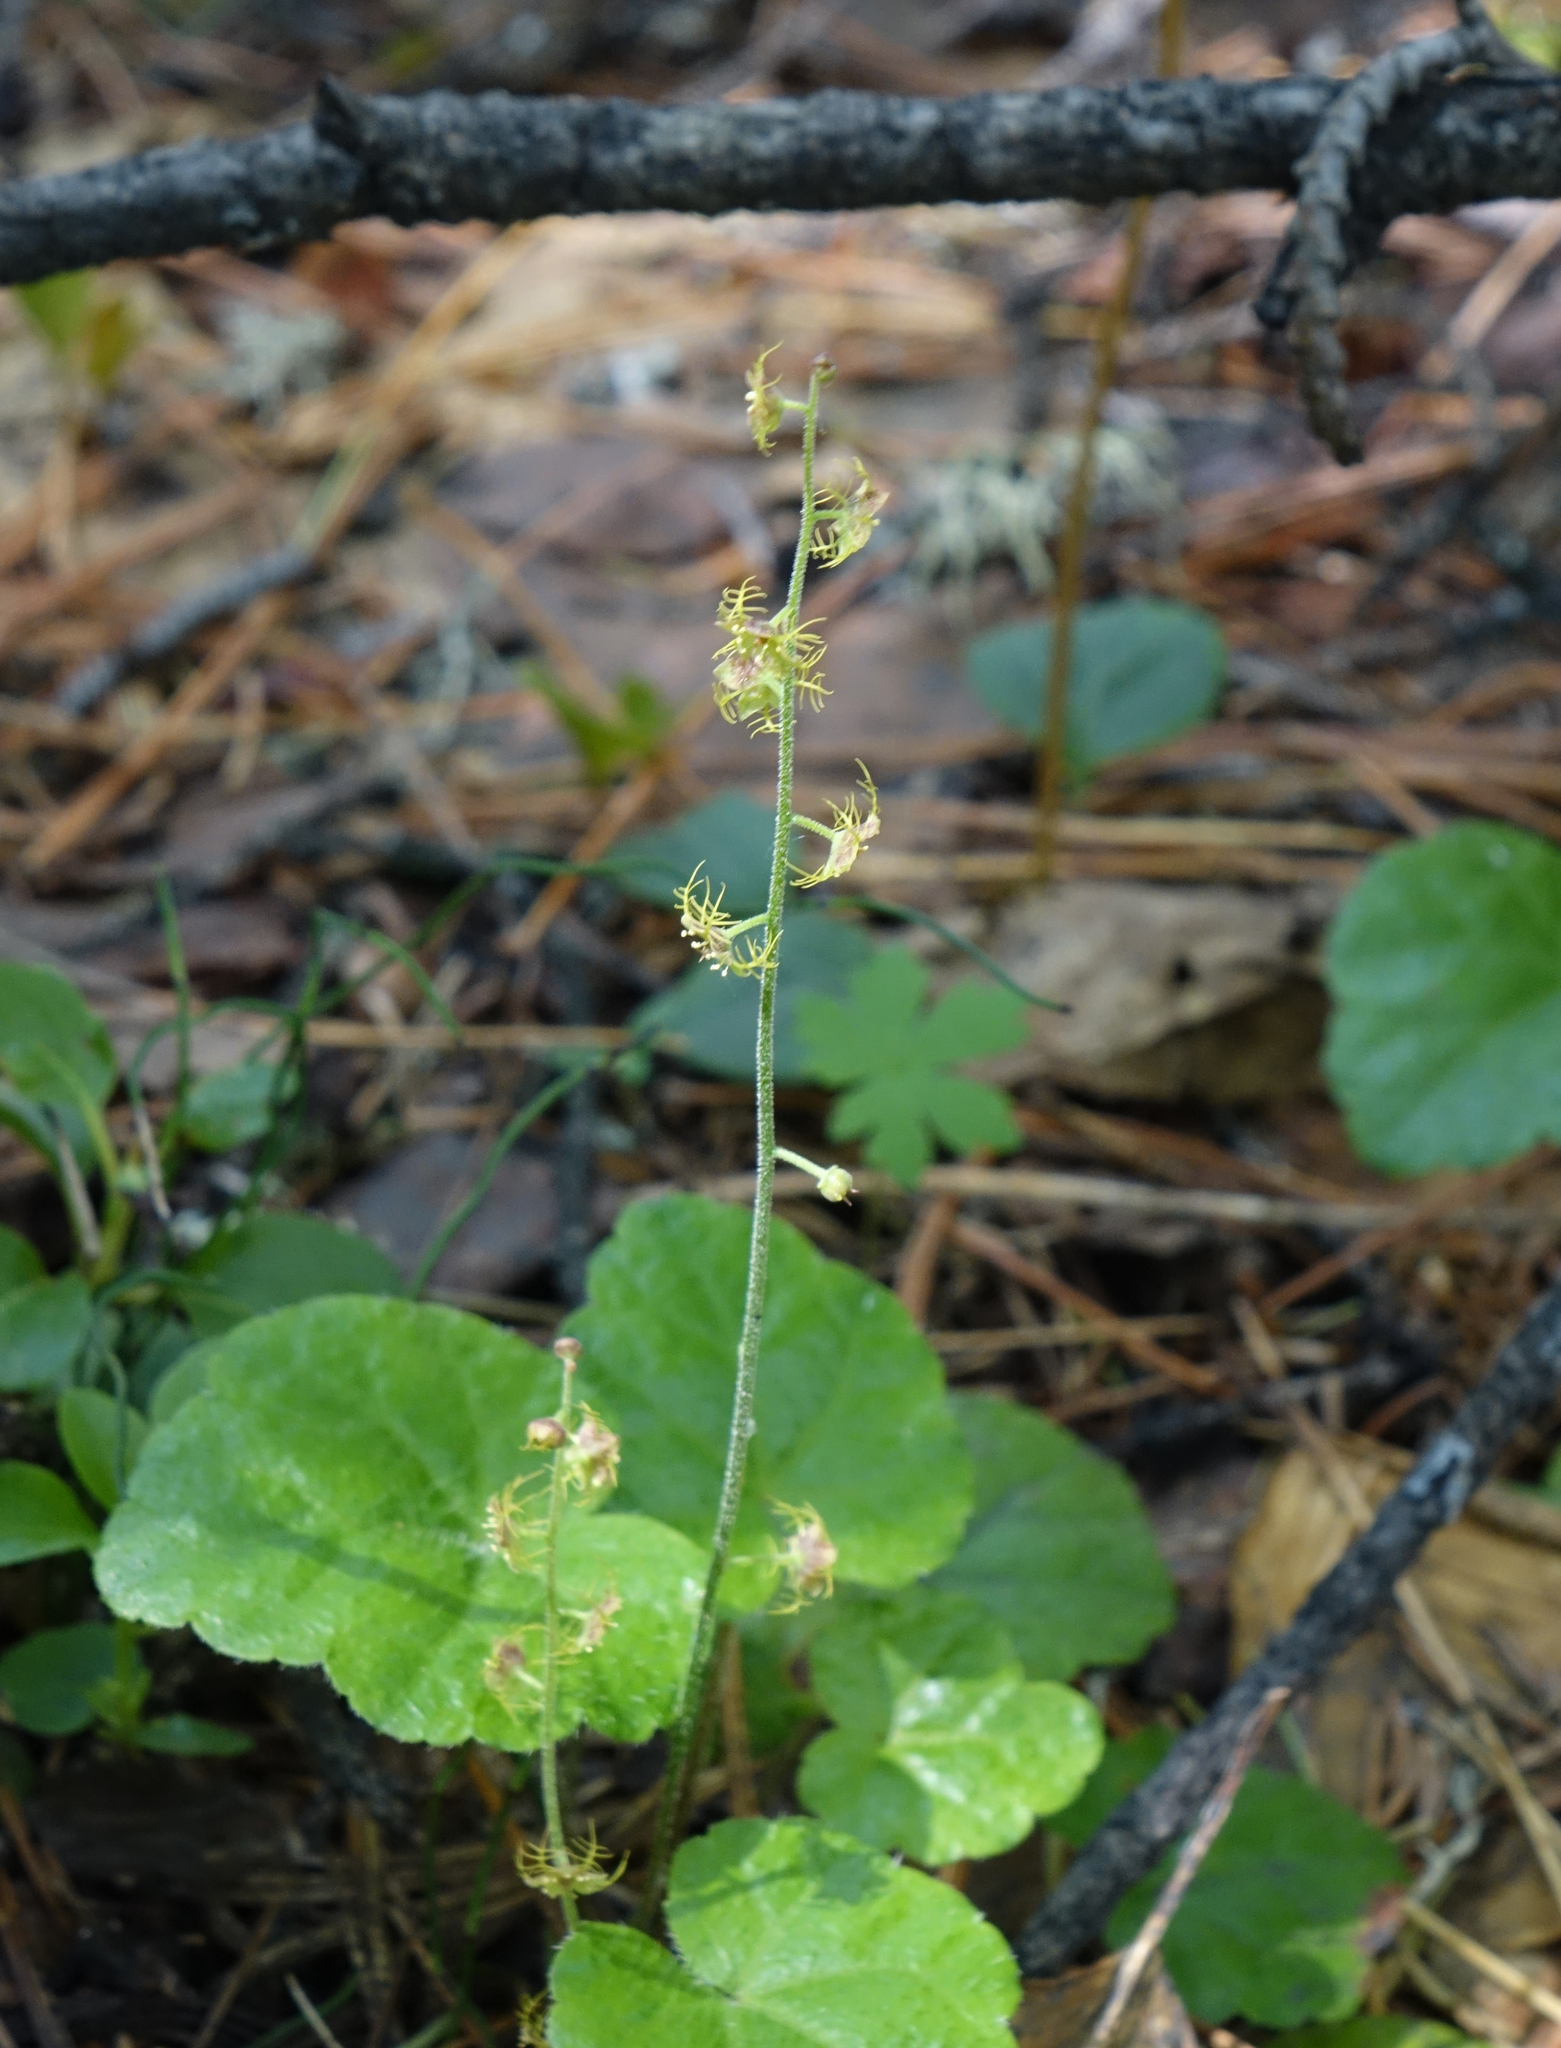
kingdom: Plantae
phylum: Tracheophyta
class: Magnoliopsida
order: Saxifragales
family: Saxifragaceae
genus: Mitella
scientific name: Mitella nuda
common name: Bare-stemmed bishop's-cap
